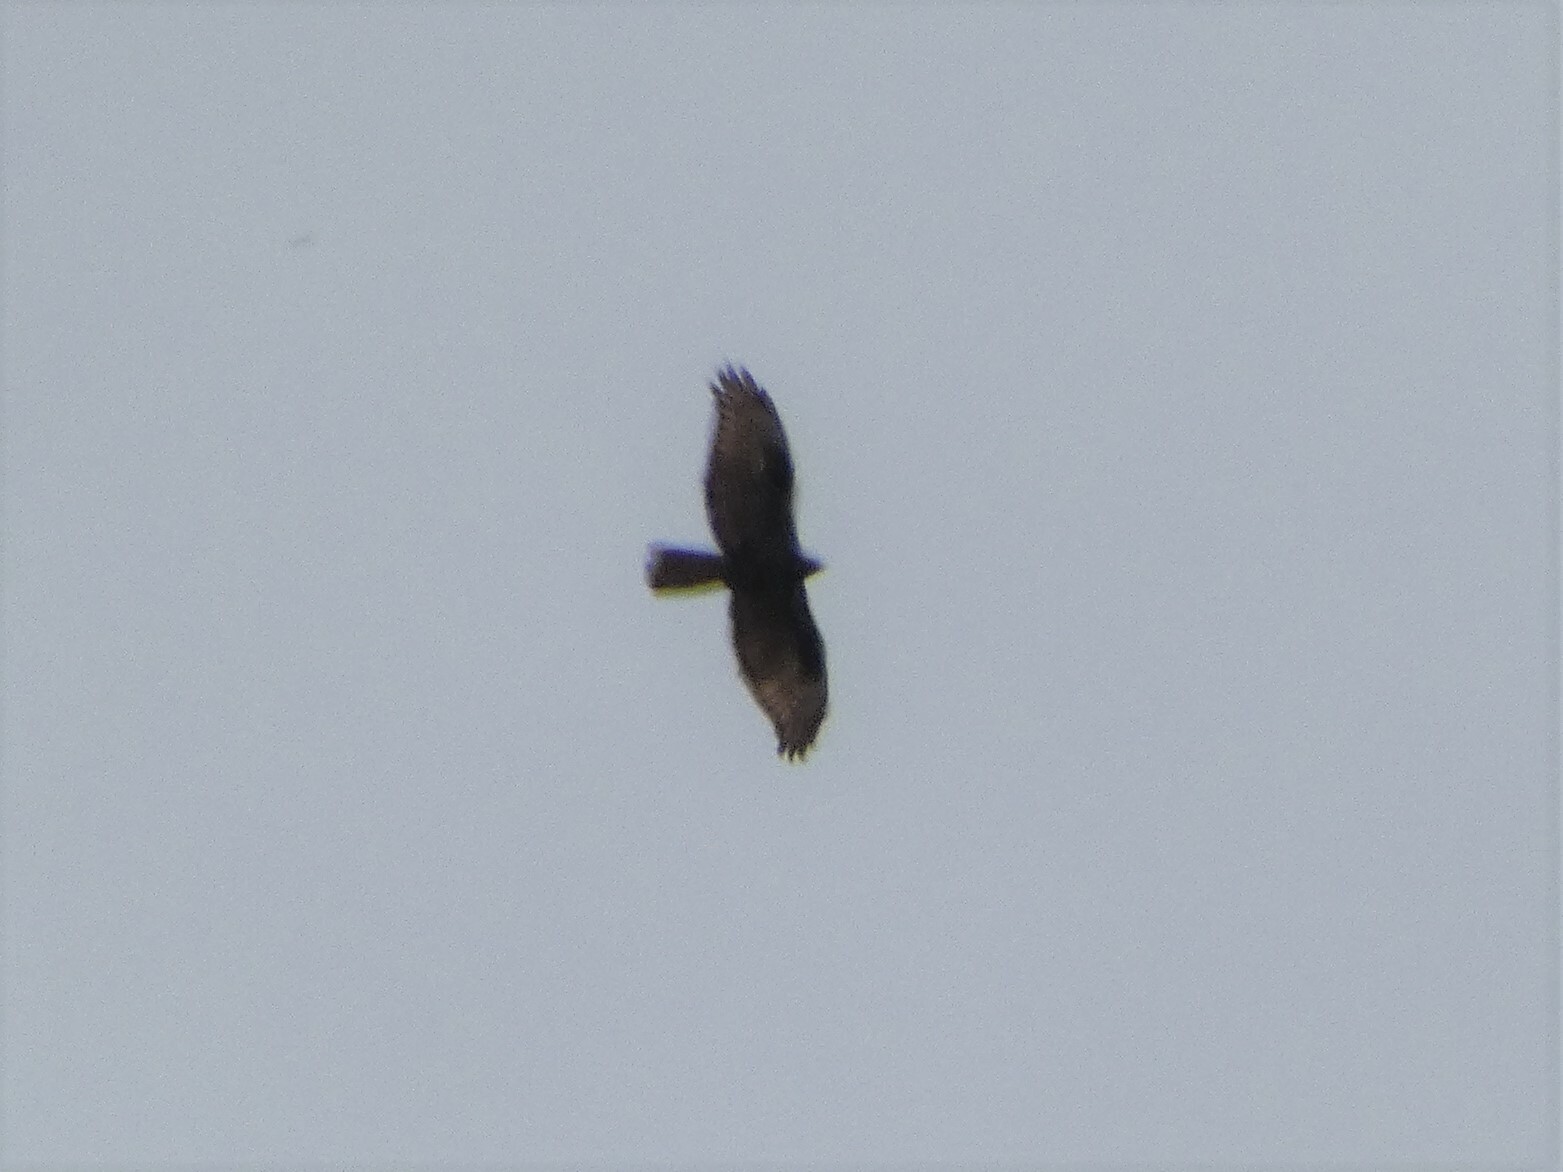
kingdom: Animalia
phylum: Chordata
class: Aves
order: Accipitriformes
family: Accipitridae
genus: Pernis
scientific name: Pernis apivorus
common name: European honey buzzard
